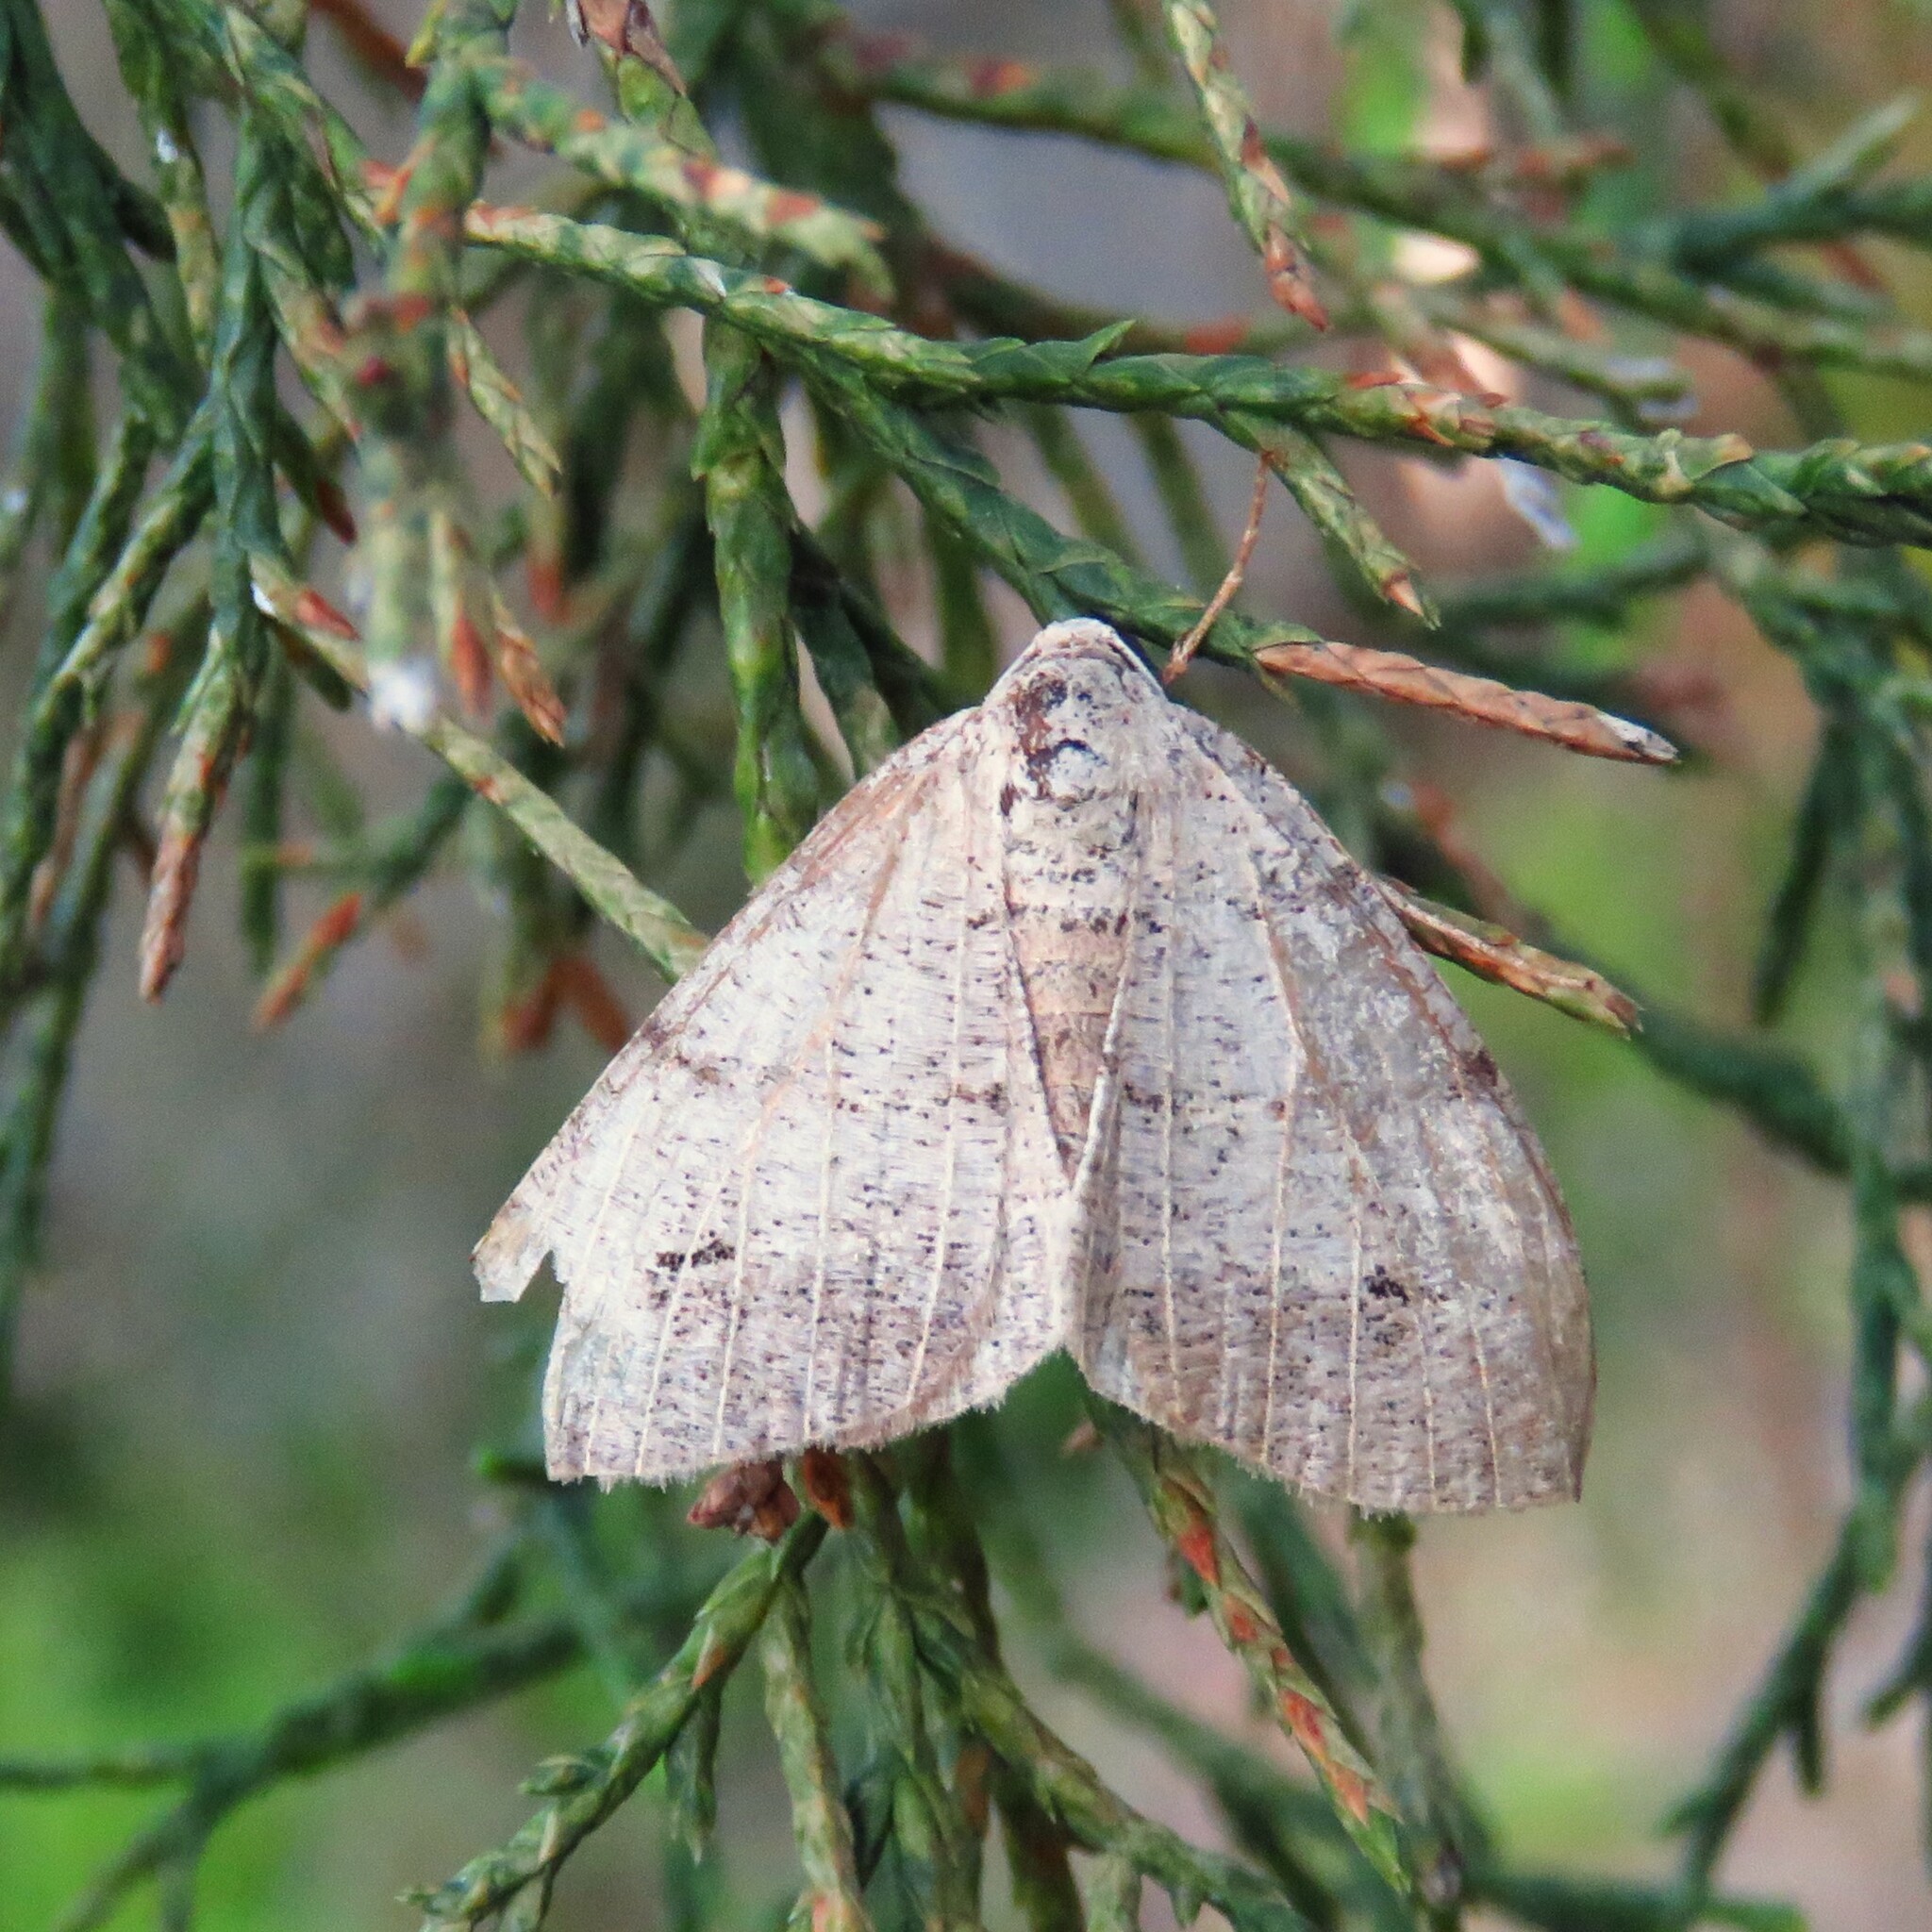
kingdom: Animalia
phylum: Arthropoda
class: Insecta
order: Lepidoptera
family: Geometridae
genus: Isturgia
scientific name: Isturgia dislocaria
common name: Pale-viened enconista
